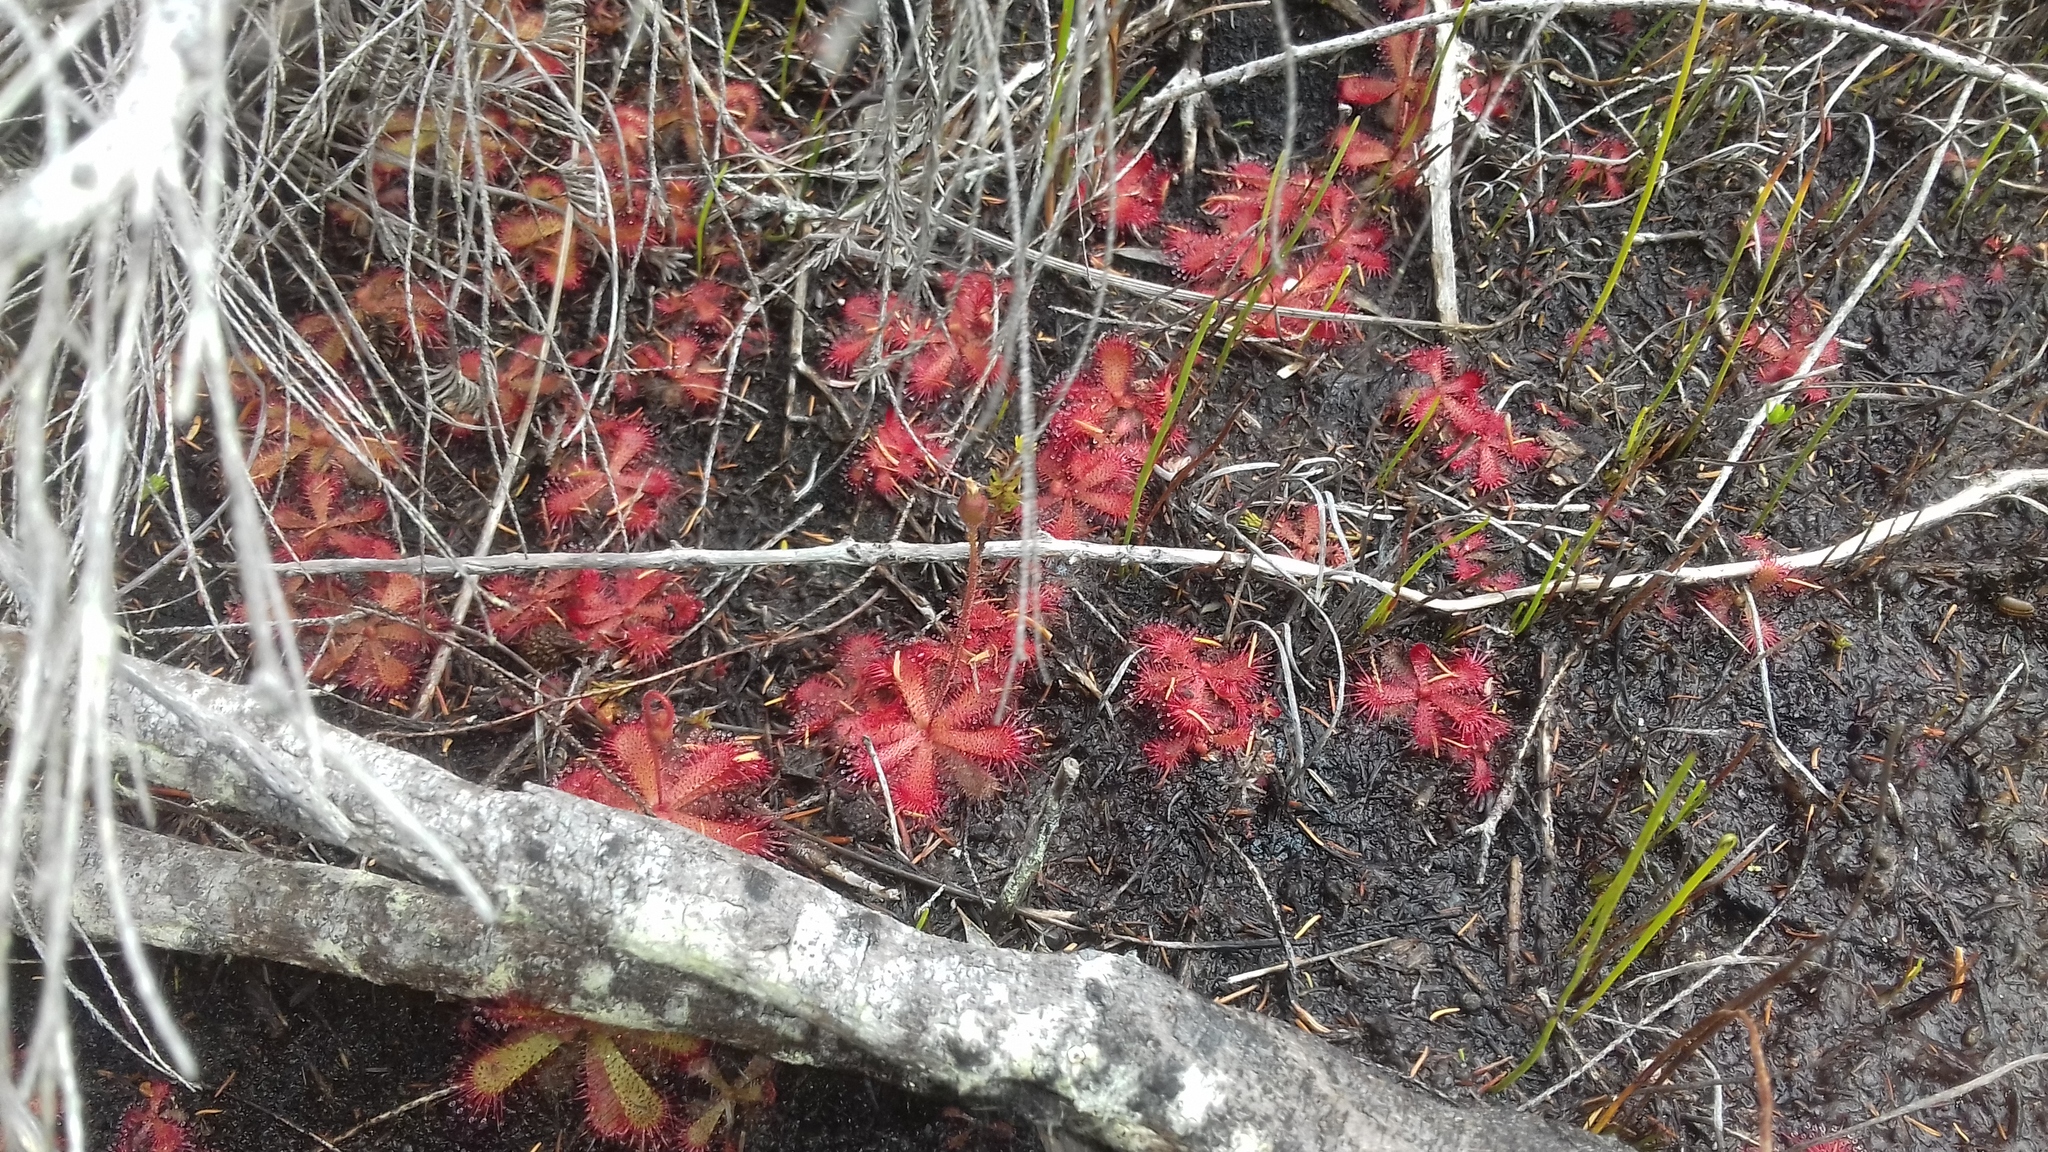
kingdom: Plantae
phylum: Tracheophyta
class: Magnoliopsida
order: Caryophyllales
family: Droseraceae
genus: Drosera
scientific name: Drosera trinervia
